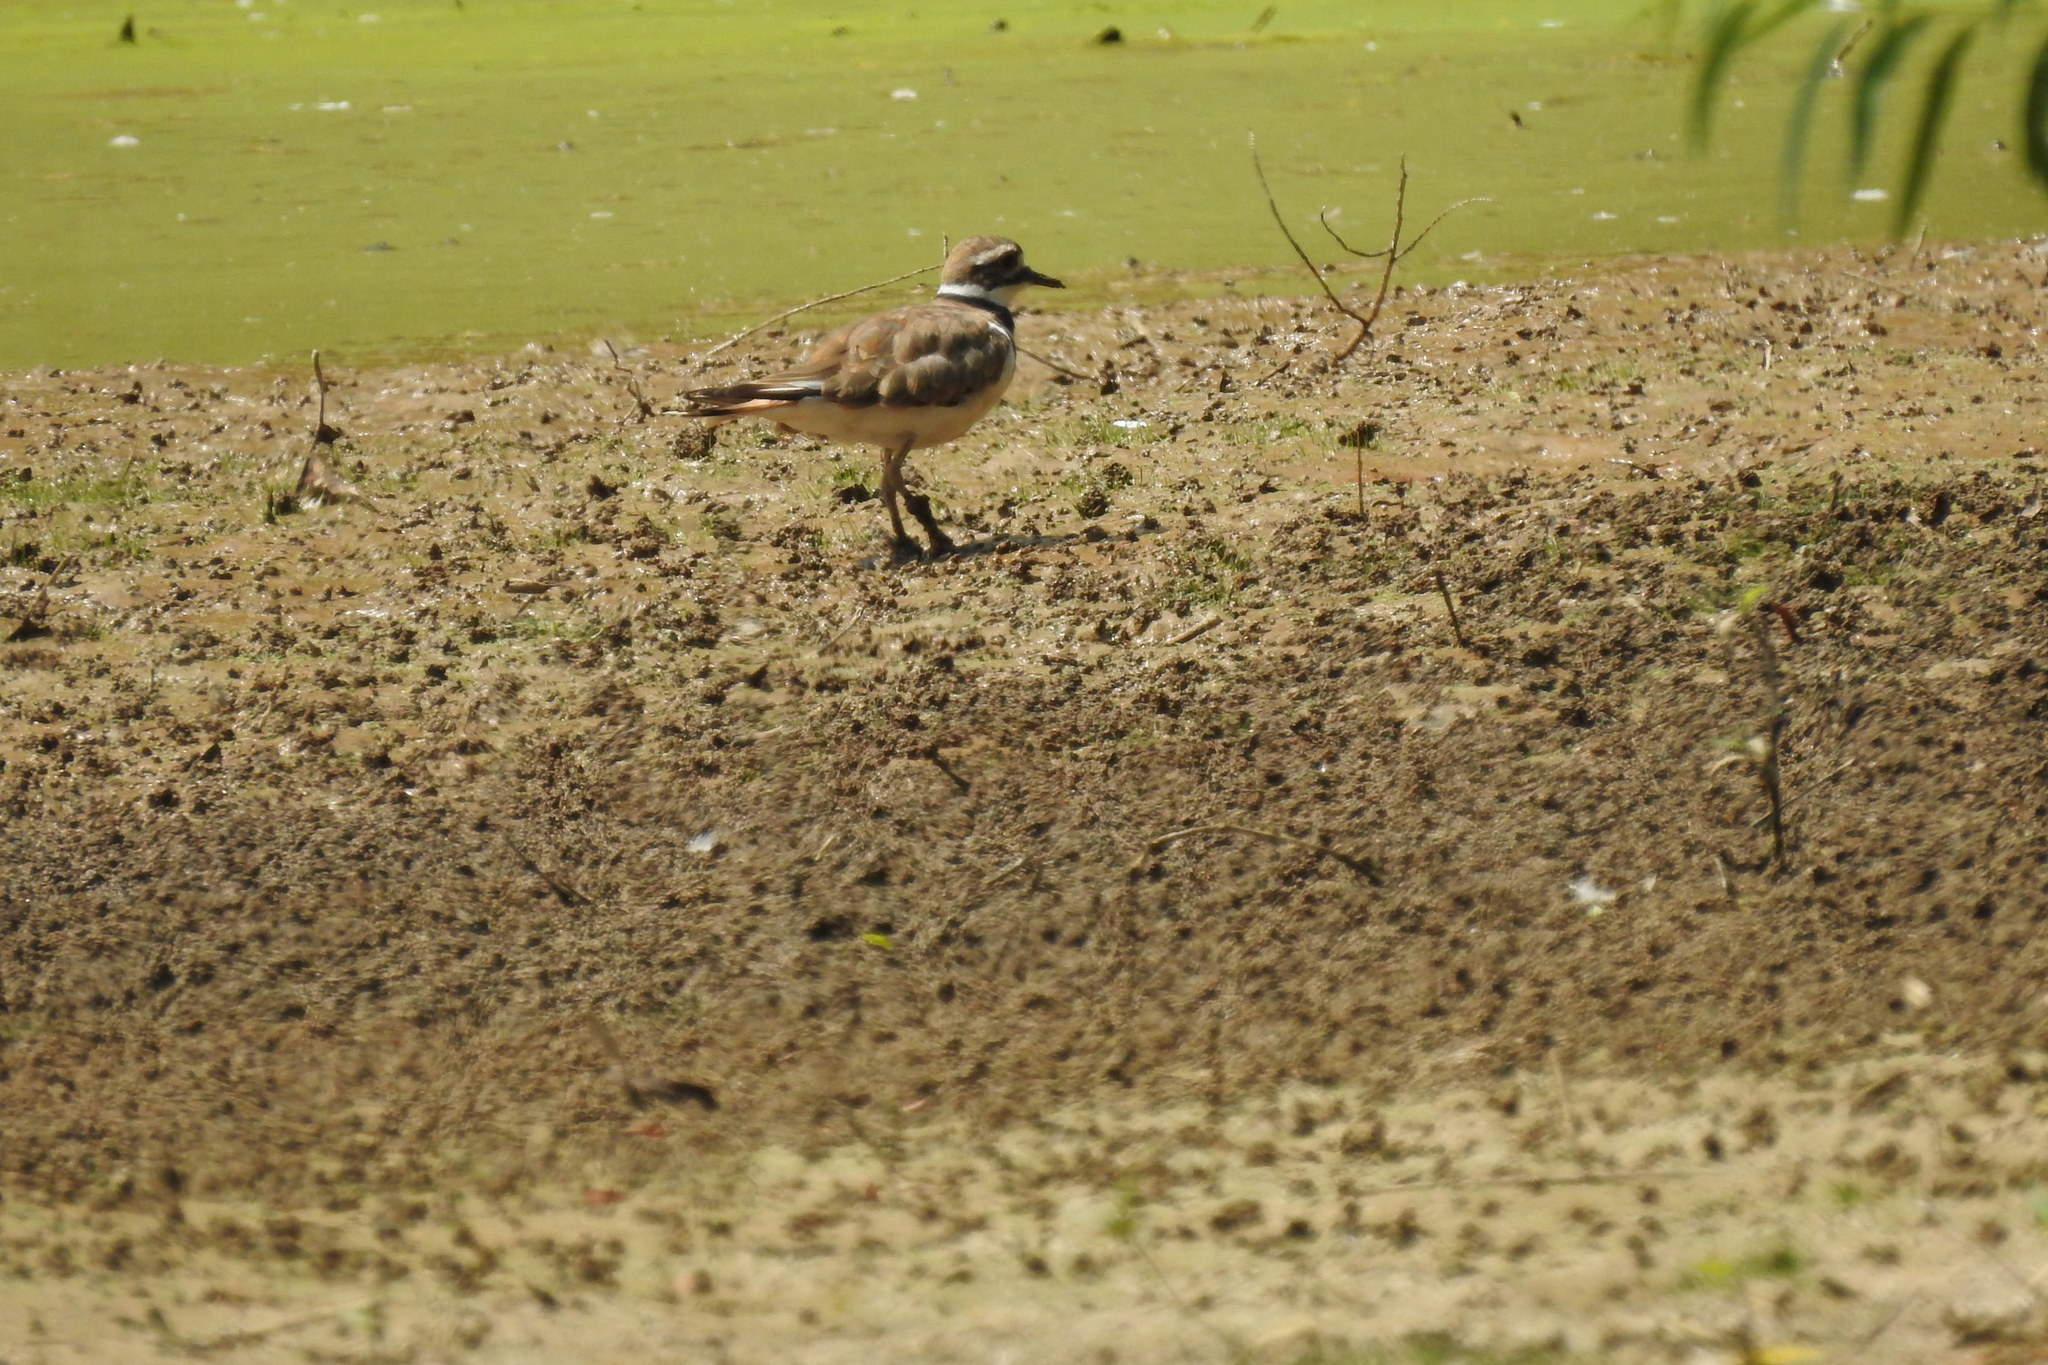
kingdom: Animalia
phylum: Chordata
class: Aves
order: Charadriiformes
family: Charadriidae
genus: Charadrius
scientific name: Charadrius vociferus
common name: Killdeer
